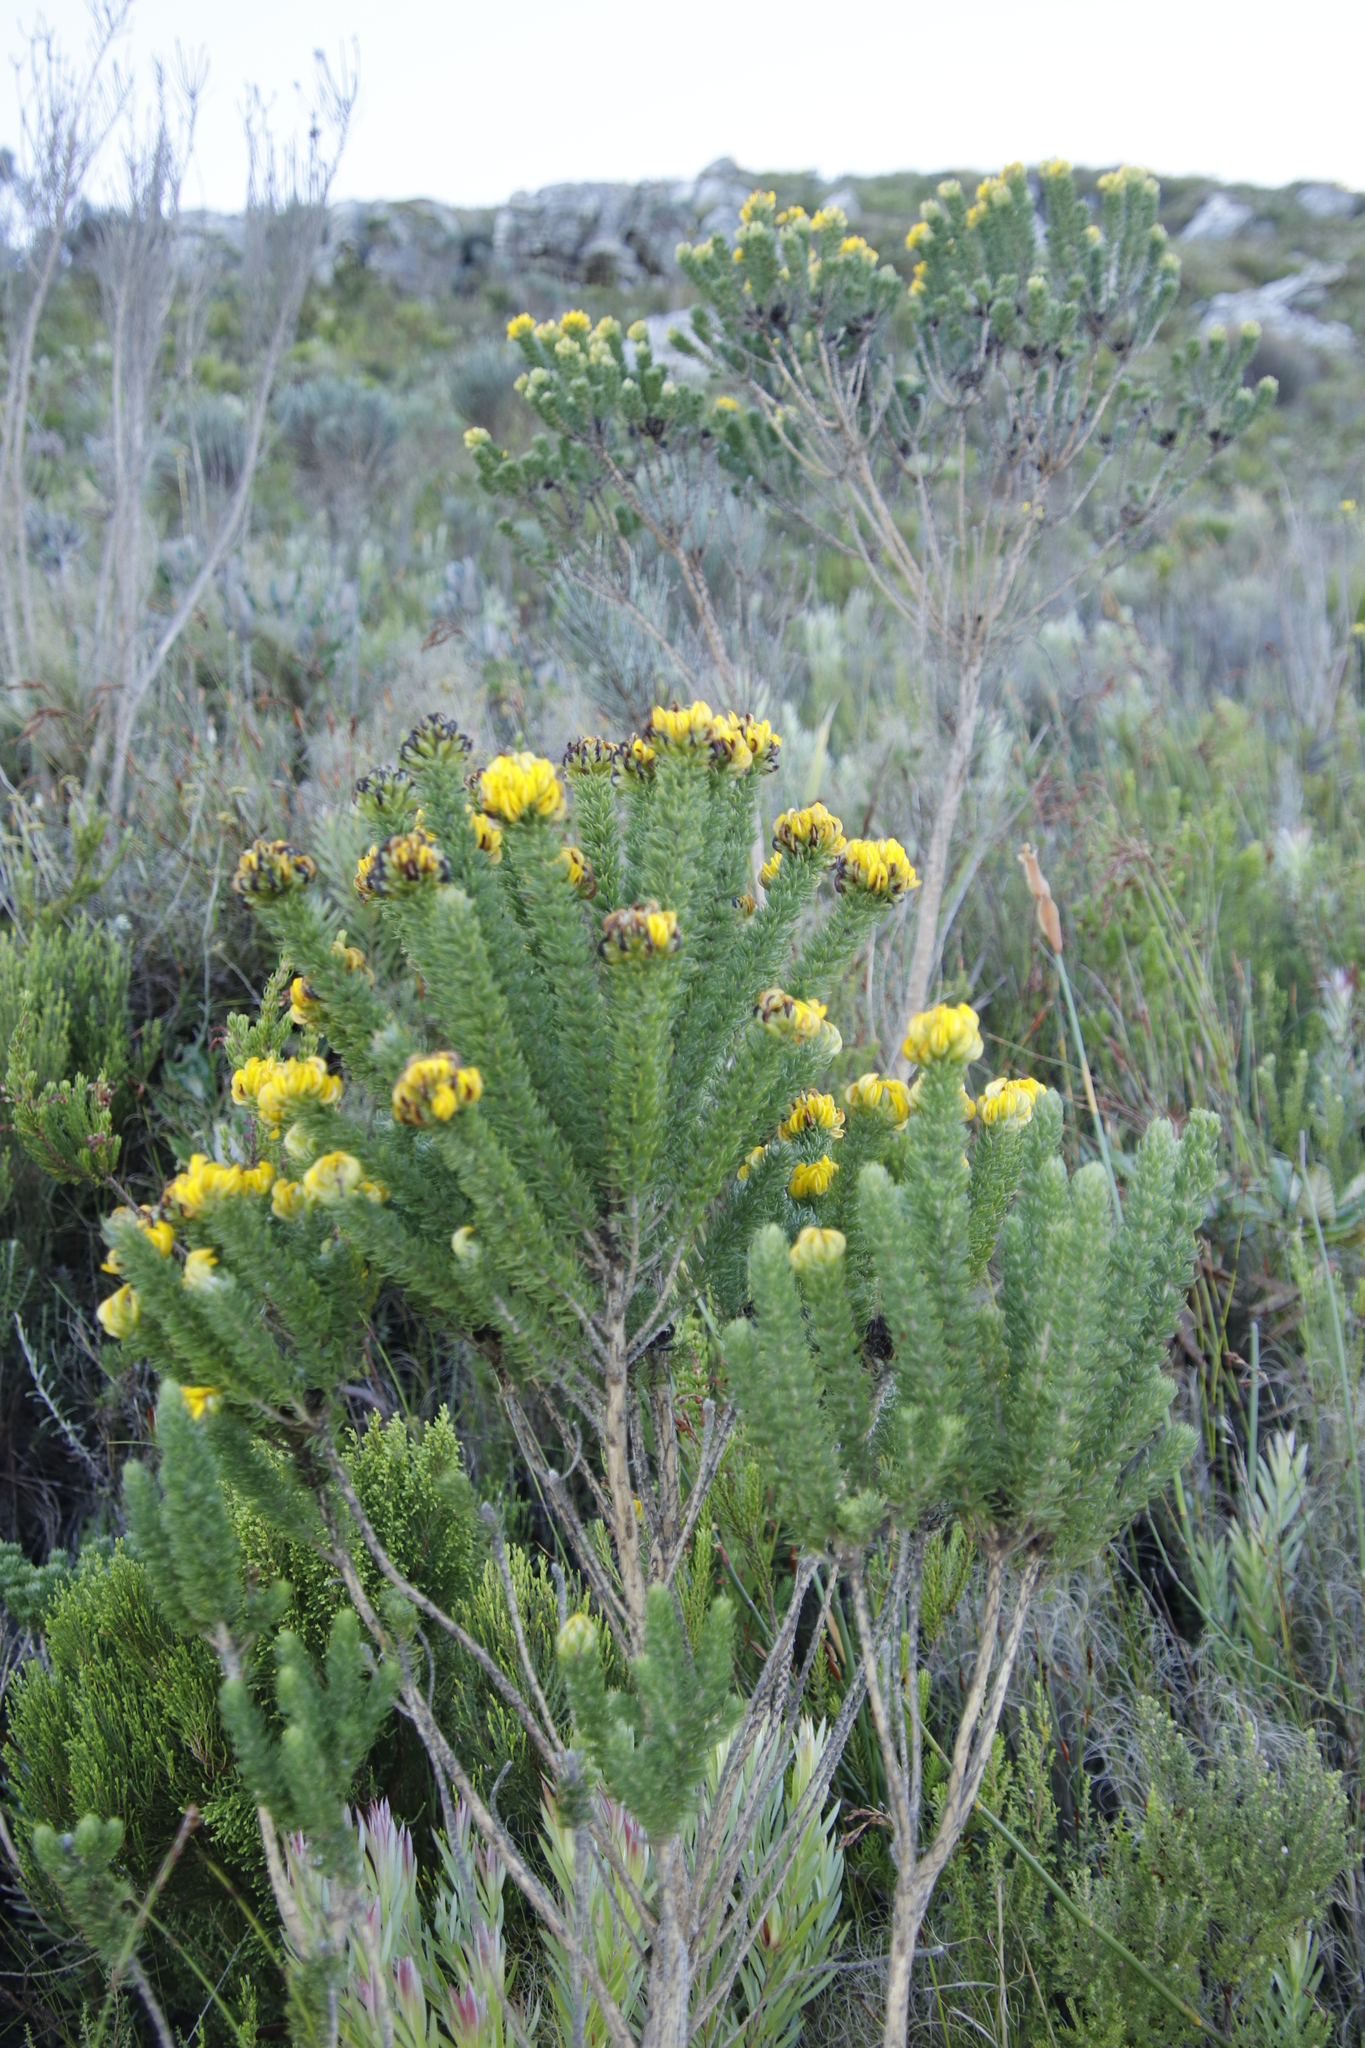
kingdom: Plantae
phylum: Tracheophyta
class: Magnoliopsida
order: Fabales
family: Fabaceae
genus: Aspalathus
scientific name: Aspalathus capitata
